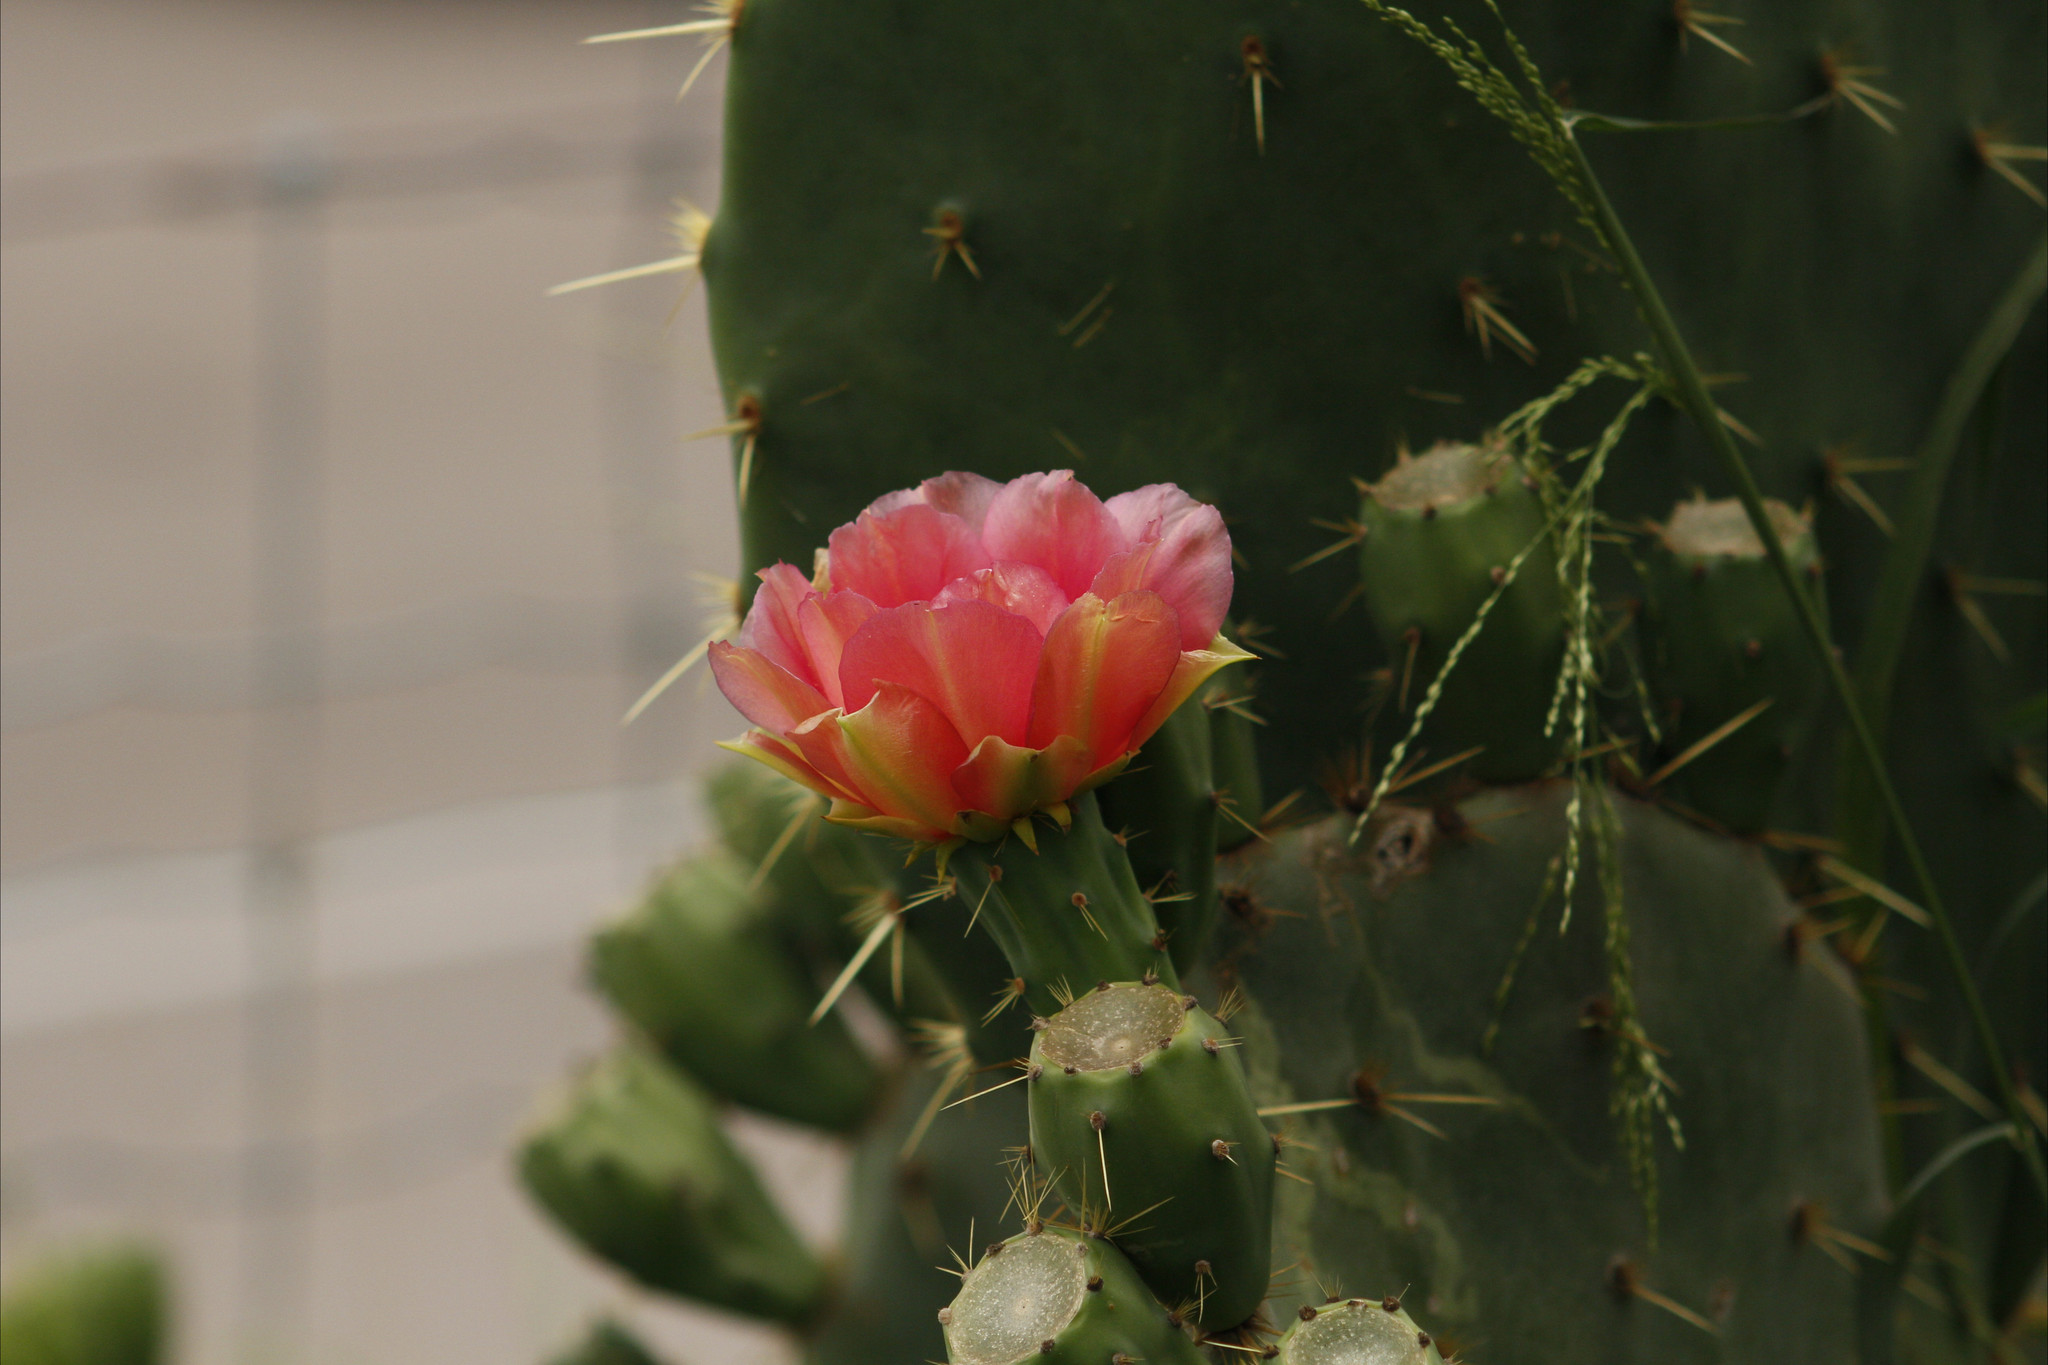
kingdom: Plantae
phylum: Tracheophyta
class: Magnoliopsida
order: Caryophyllales
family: Cactaceae
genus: Opuntia
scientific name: Opuntia engelmannii
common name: Cactus-apple
